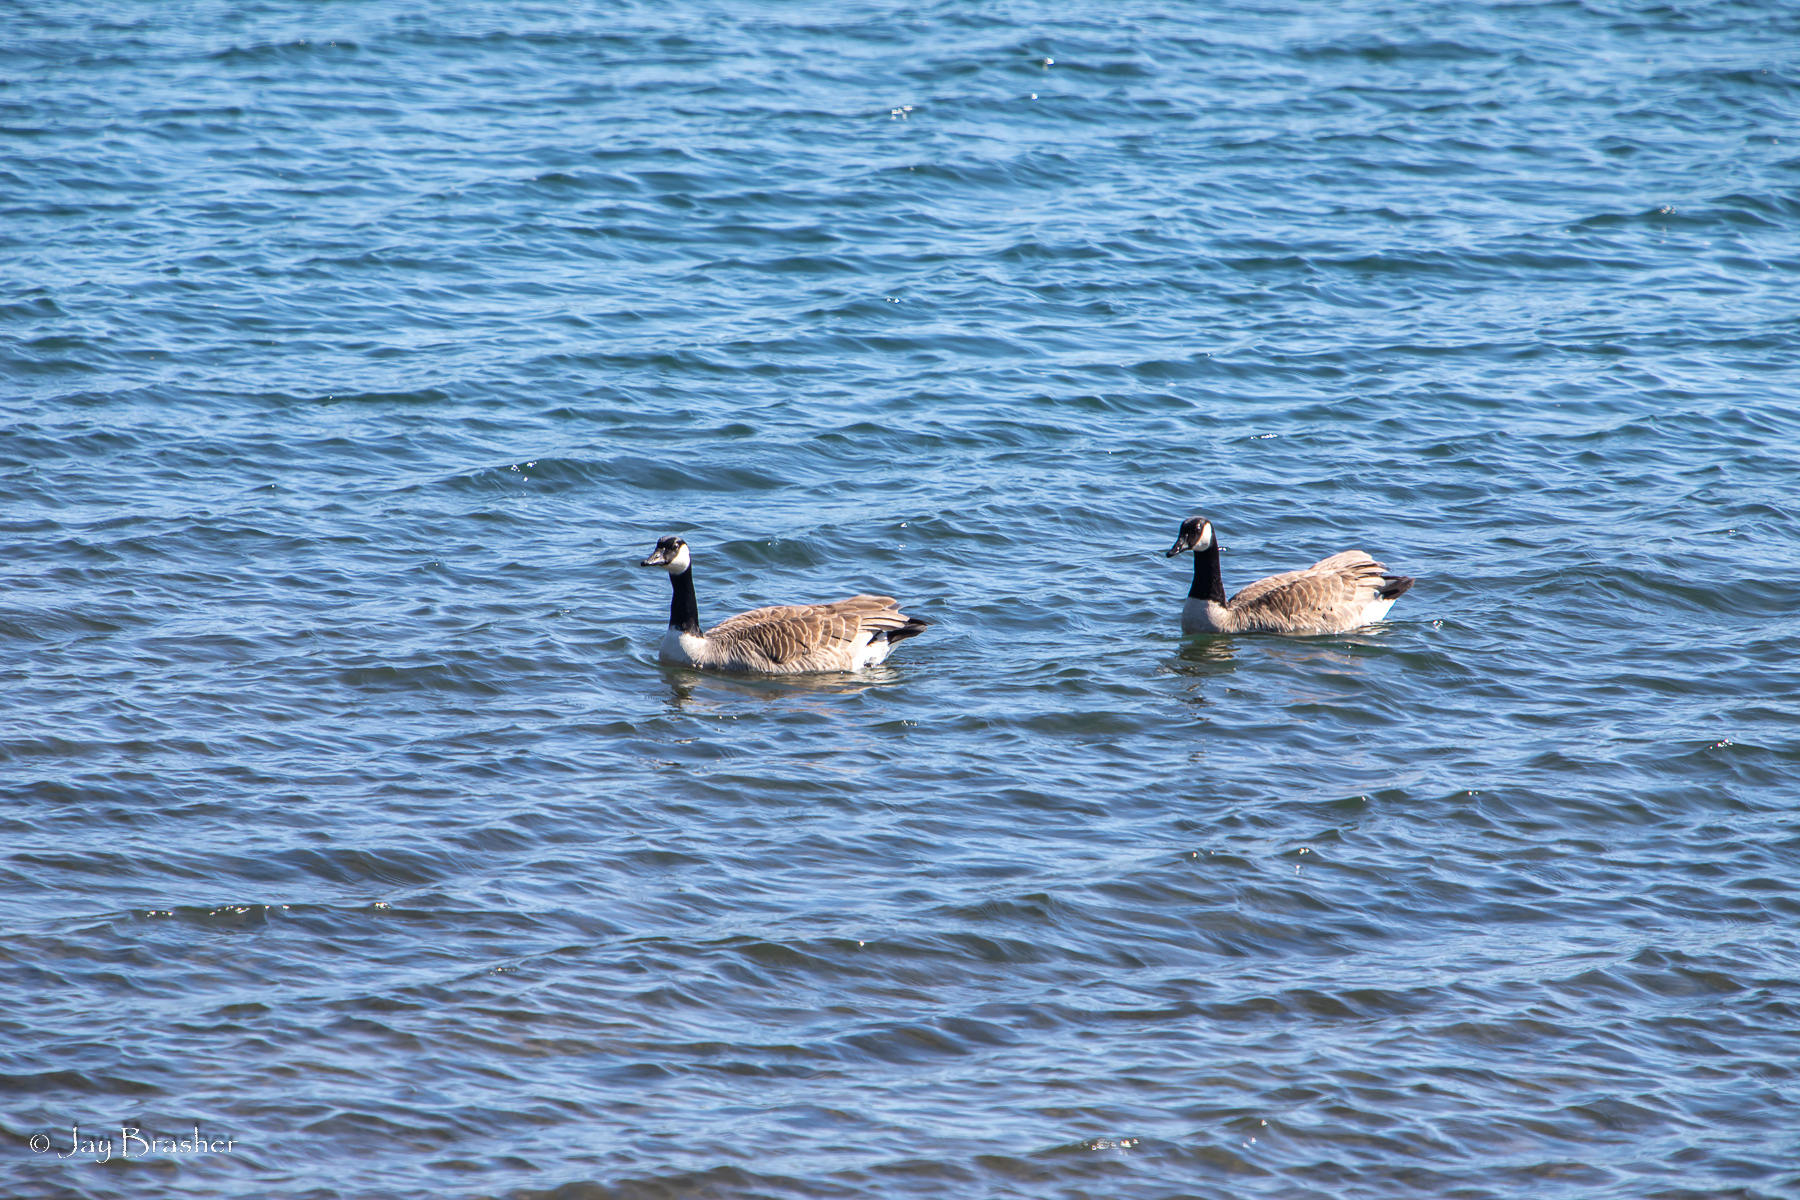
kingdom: Animalia
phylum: Chordata
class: Aves
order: Anseriformes
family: Anatidae
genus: Branta
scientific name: Branta canadensis
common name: Canada goose
